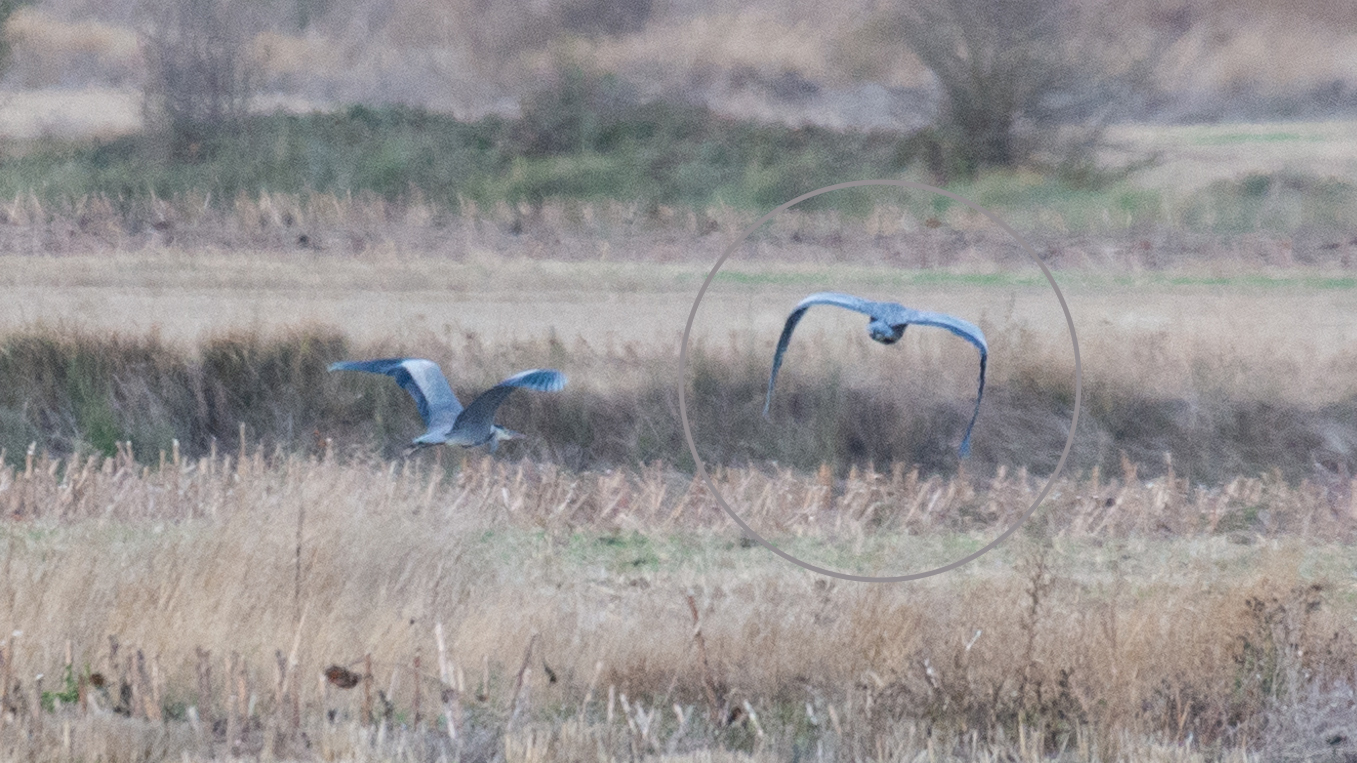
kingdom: Animalia
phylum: Chordata
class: Aves
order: Pelecaniformes
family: Ardeidae
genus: Ardea
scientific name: Ardea cinerea
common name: Grey heron
